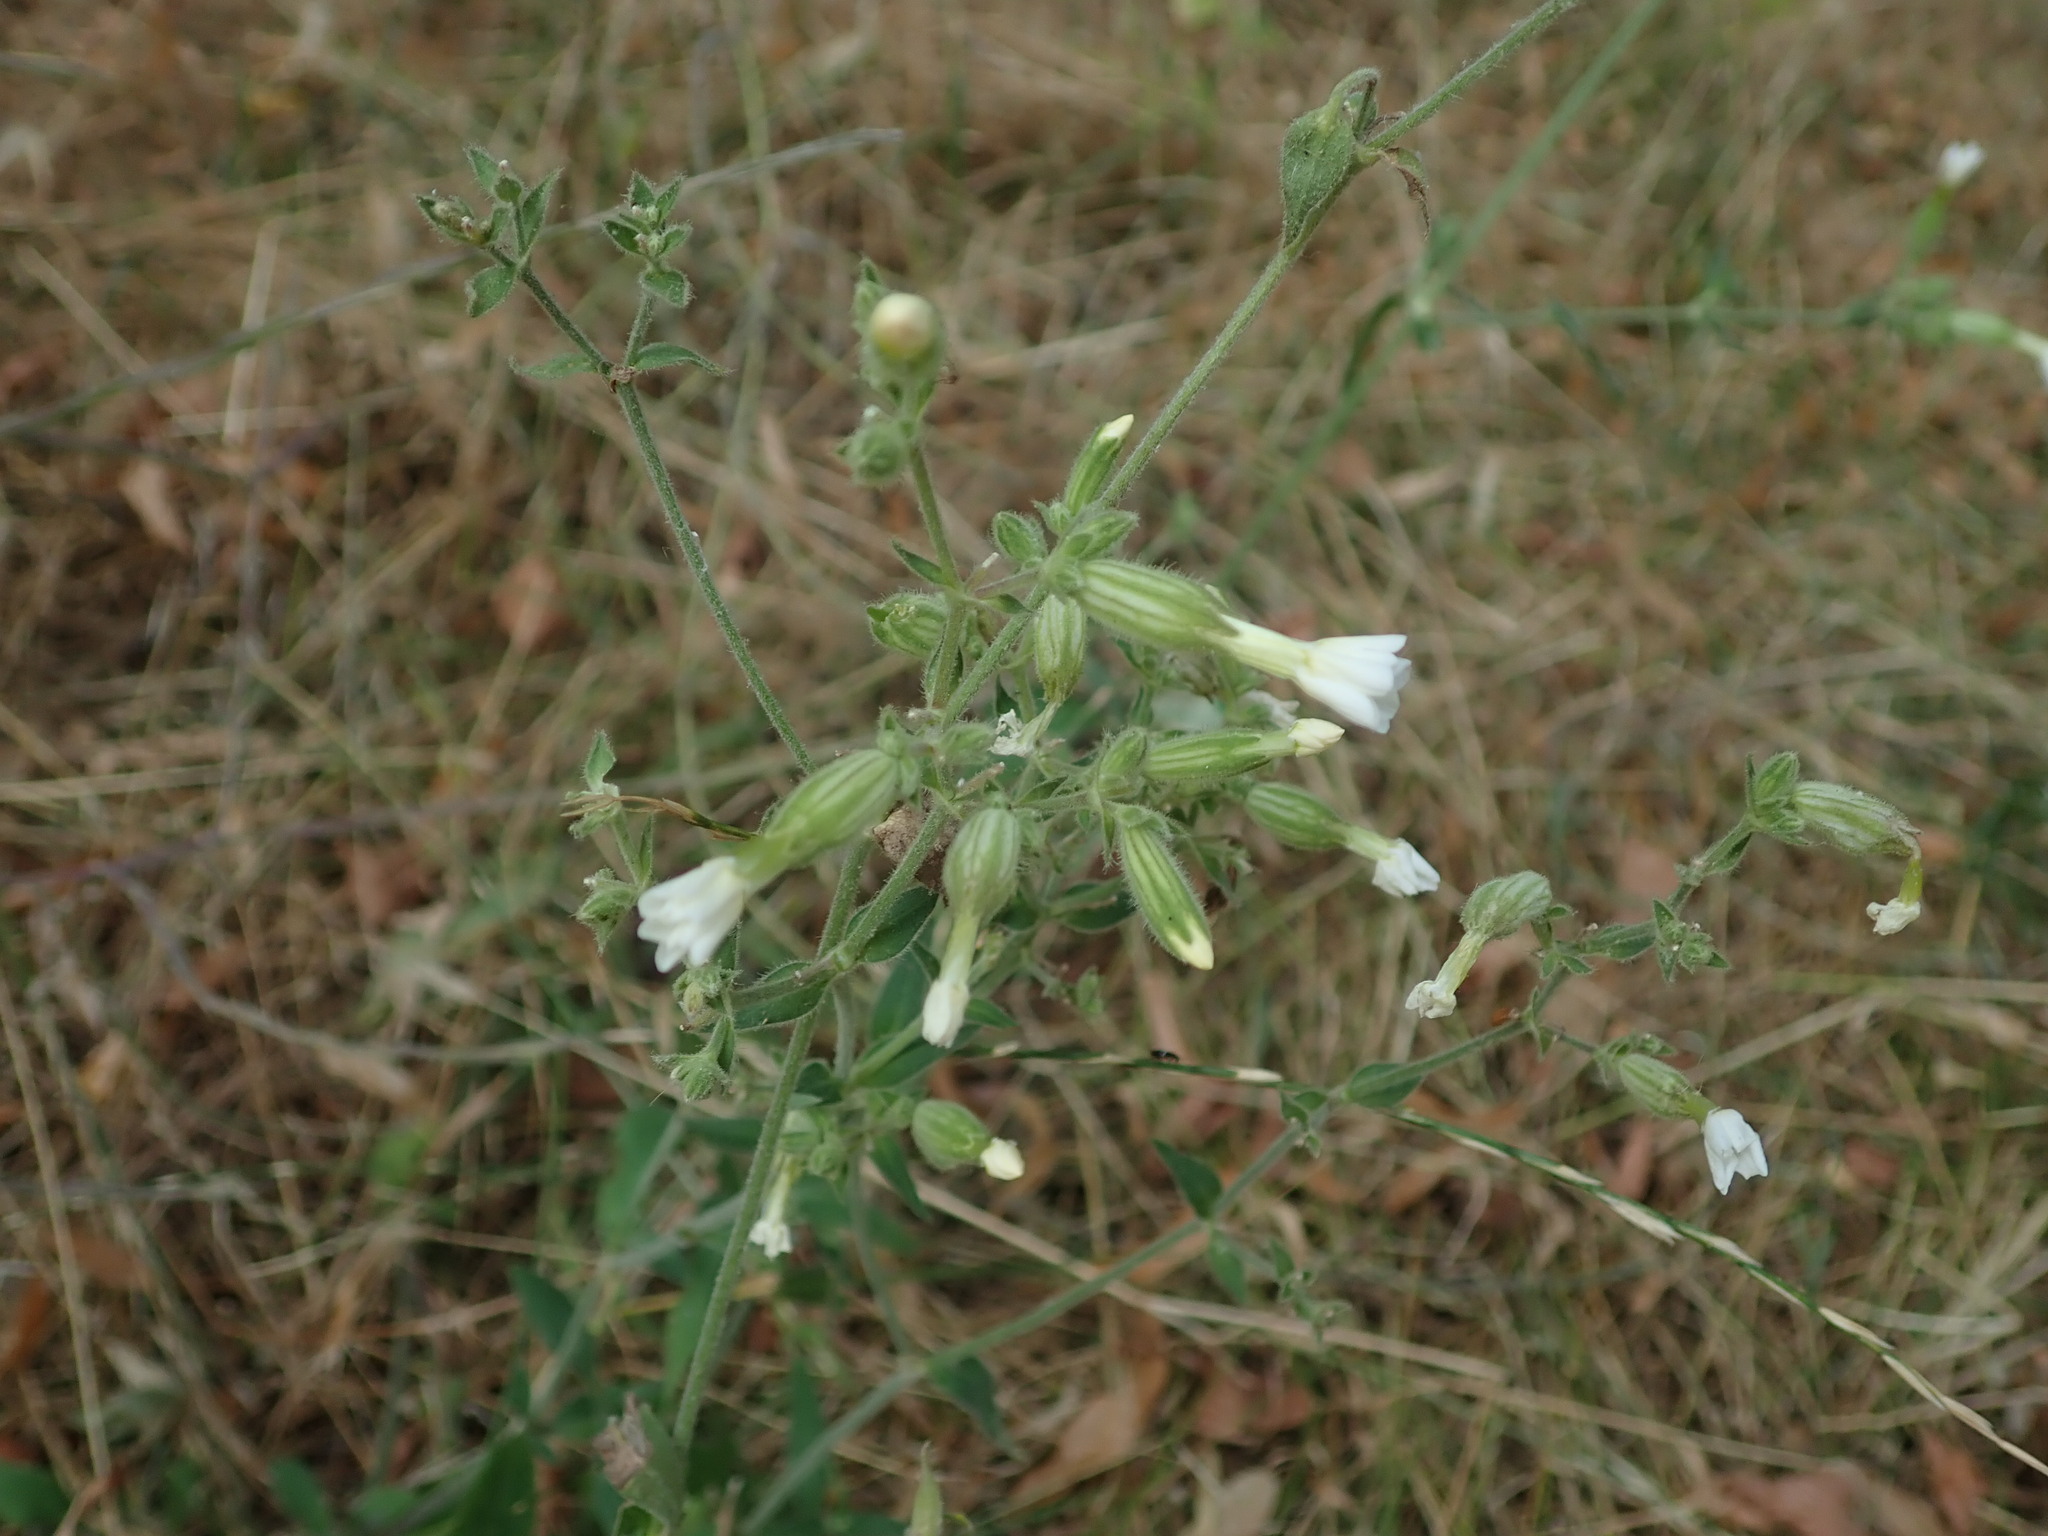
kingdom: Plantae
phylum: Tracheophyta
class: Magnoliopsida
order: Caryophyllales
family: Caryophyllaceae
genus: Silene
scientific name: Silene latifolia
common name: White campion
